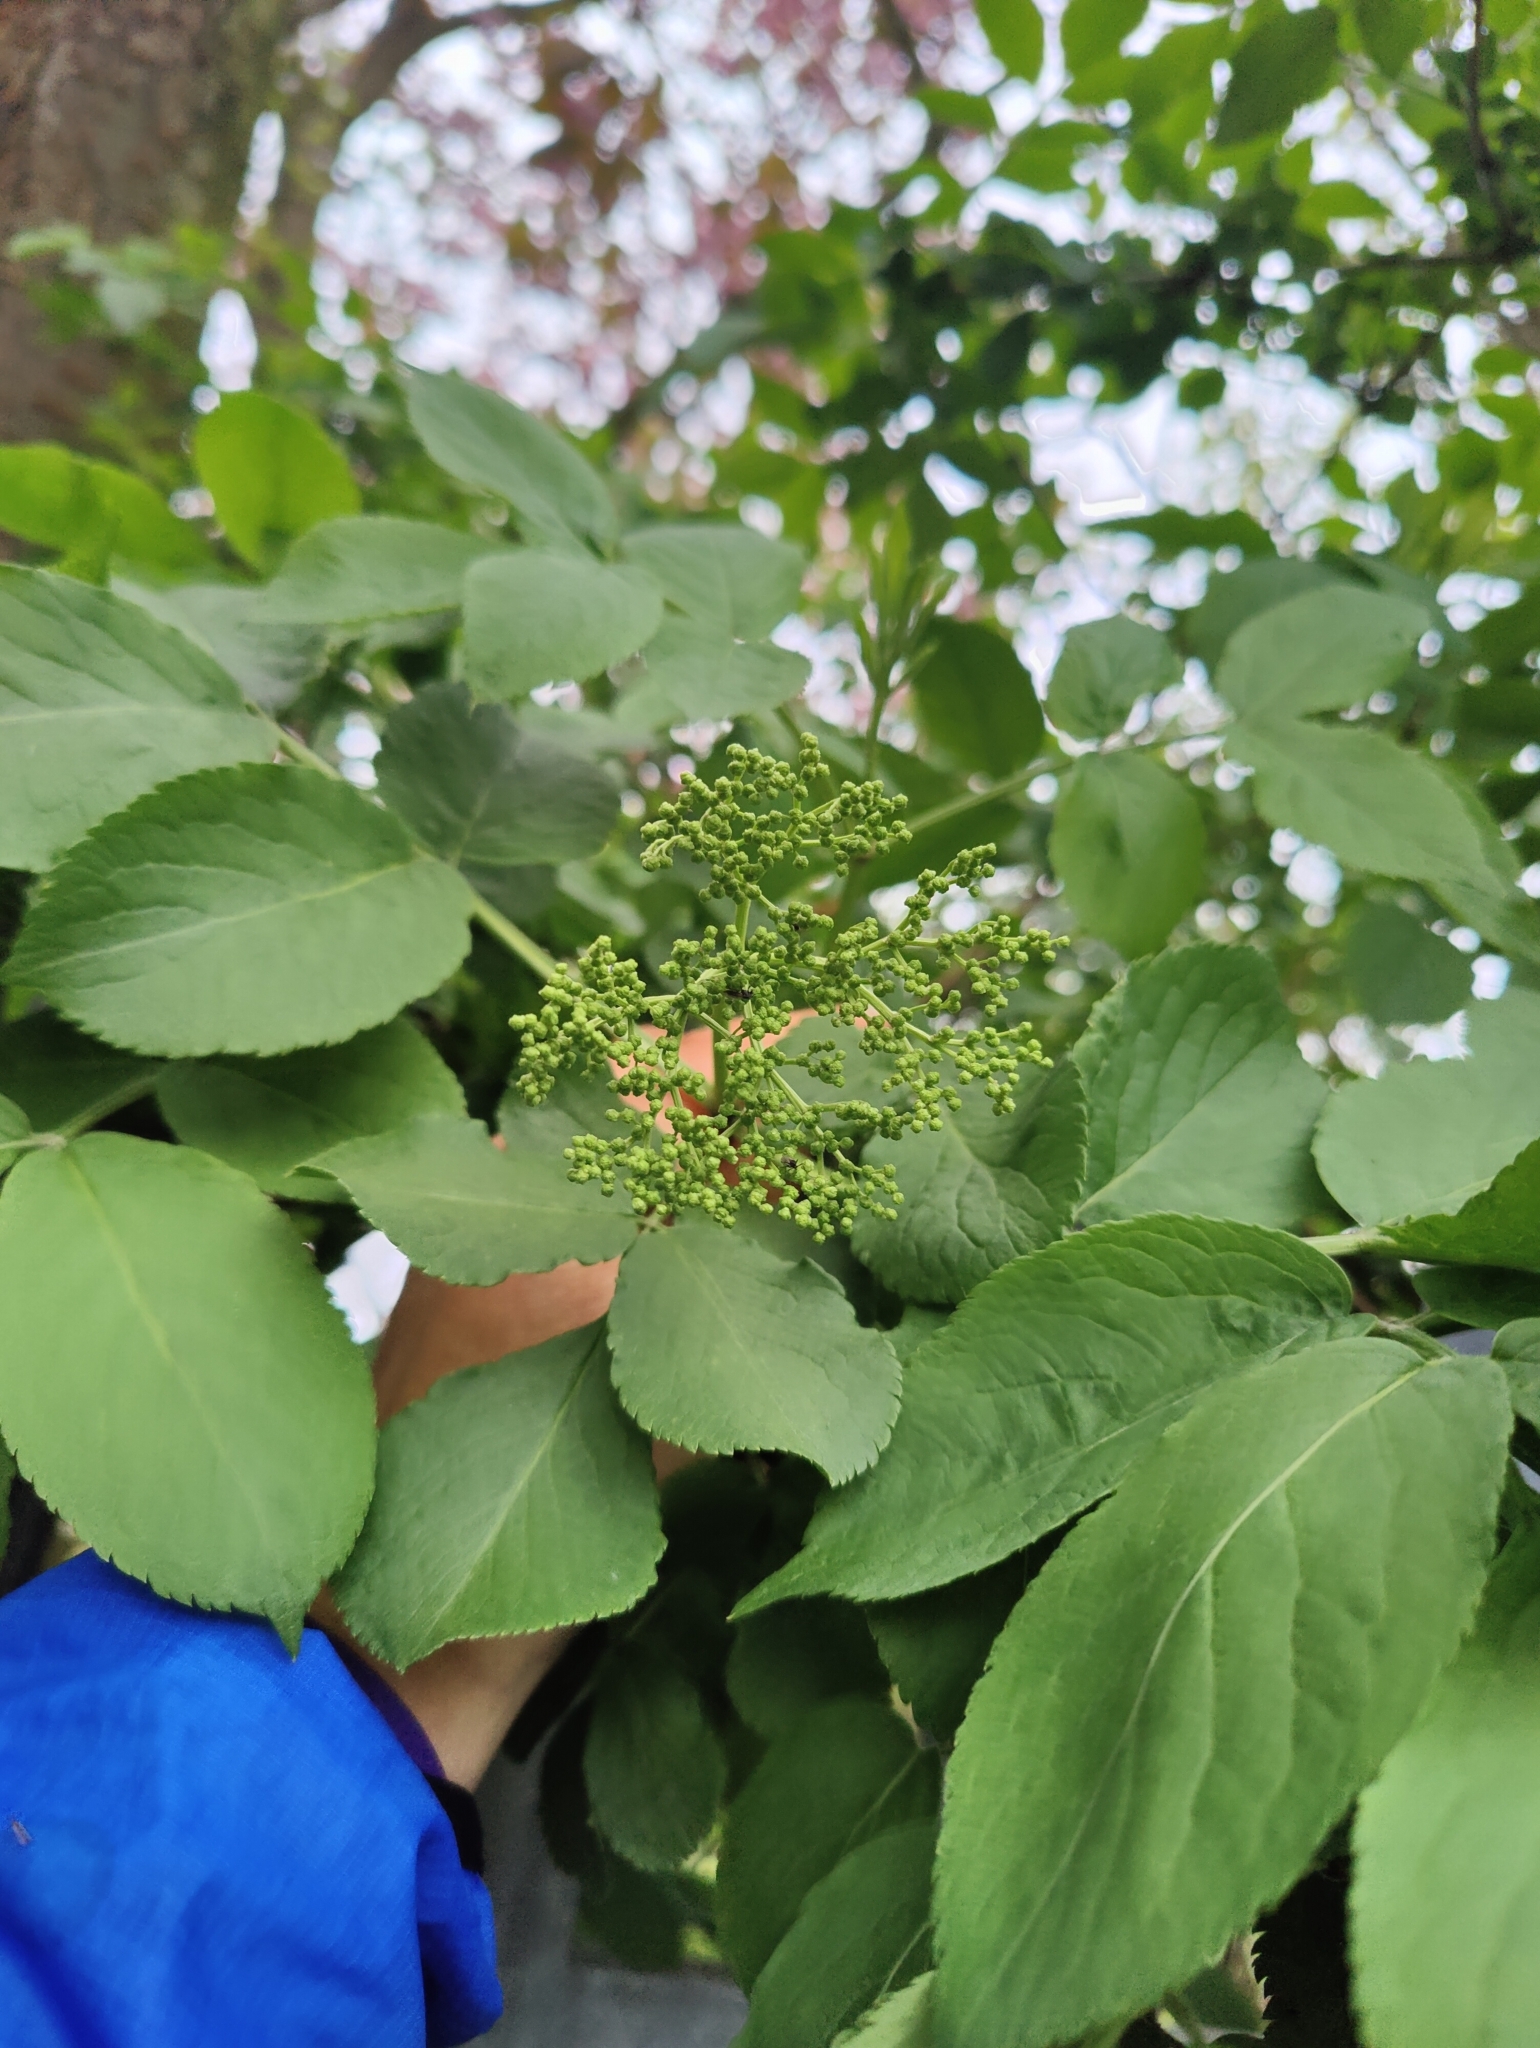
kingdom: Plantae
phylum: Tracheophyta
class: Magnoliopsida
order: Dipsacales
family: Viburnaceae
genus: Sambucus
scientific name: Sambucus nigra
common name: Elder
